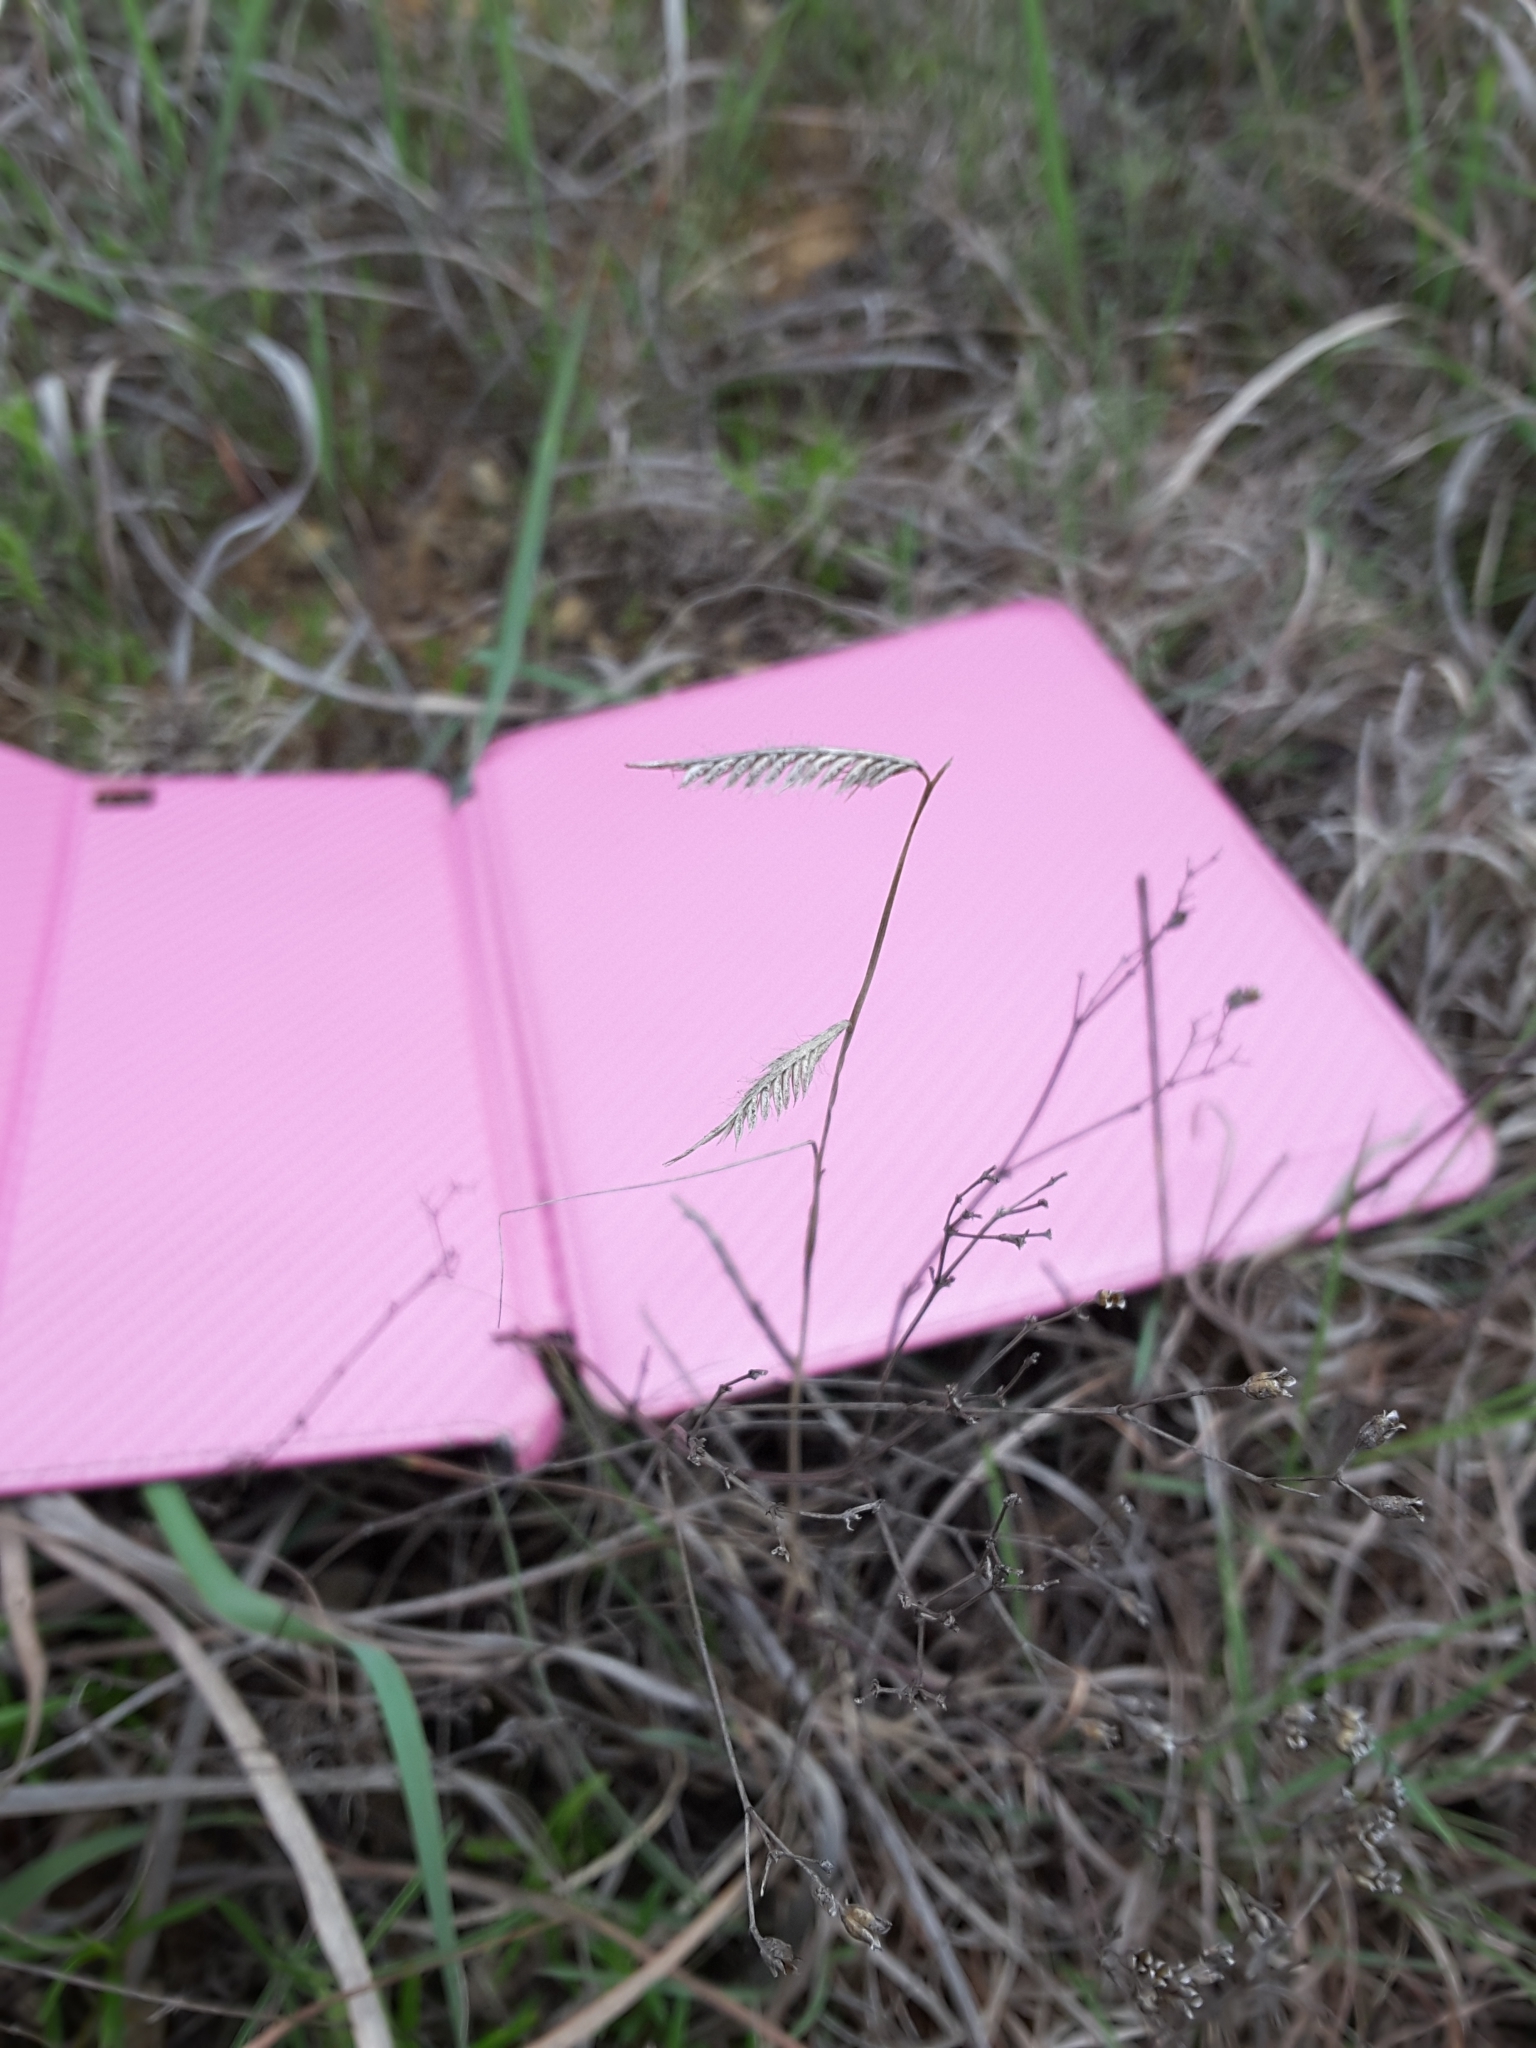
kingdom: Plantae
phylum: Tracheophyta
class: Liliopsida
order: Poales
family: Poaceae
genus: Bouteloua
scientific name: Bouteloua hirsuta
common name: Hairy grama
